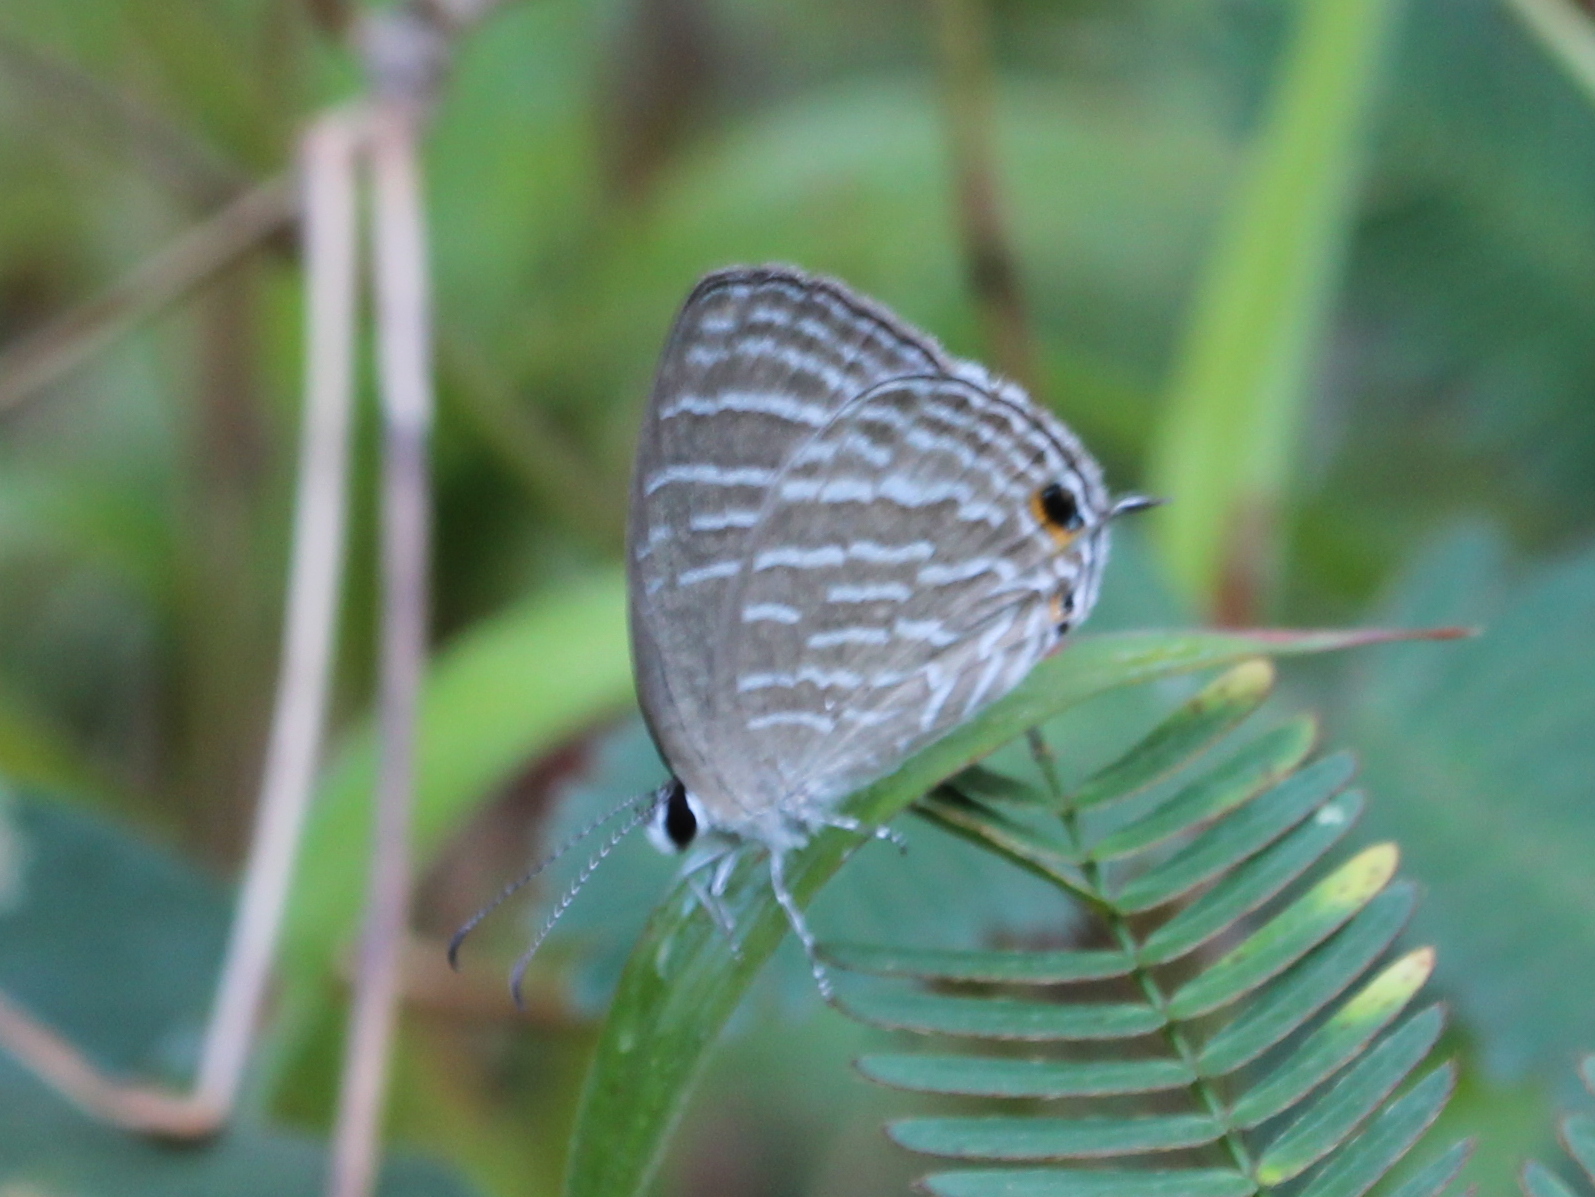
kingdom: Animalia
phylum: Arthropoda
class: Insecta
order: Lepidoptera
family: Lycaenidae
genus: Jamides
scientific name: Jamides celeno
